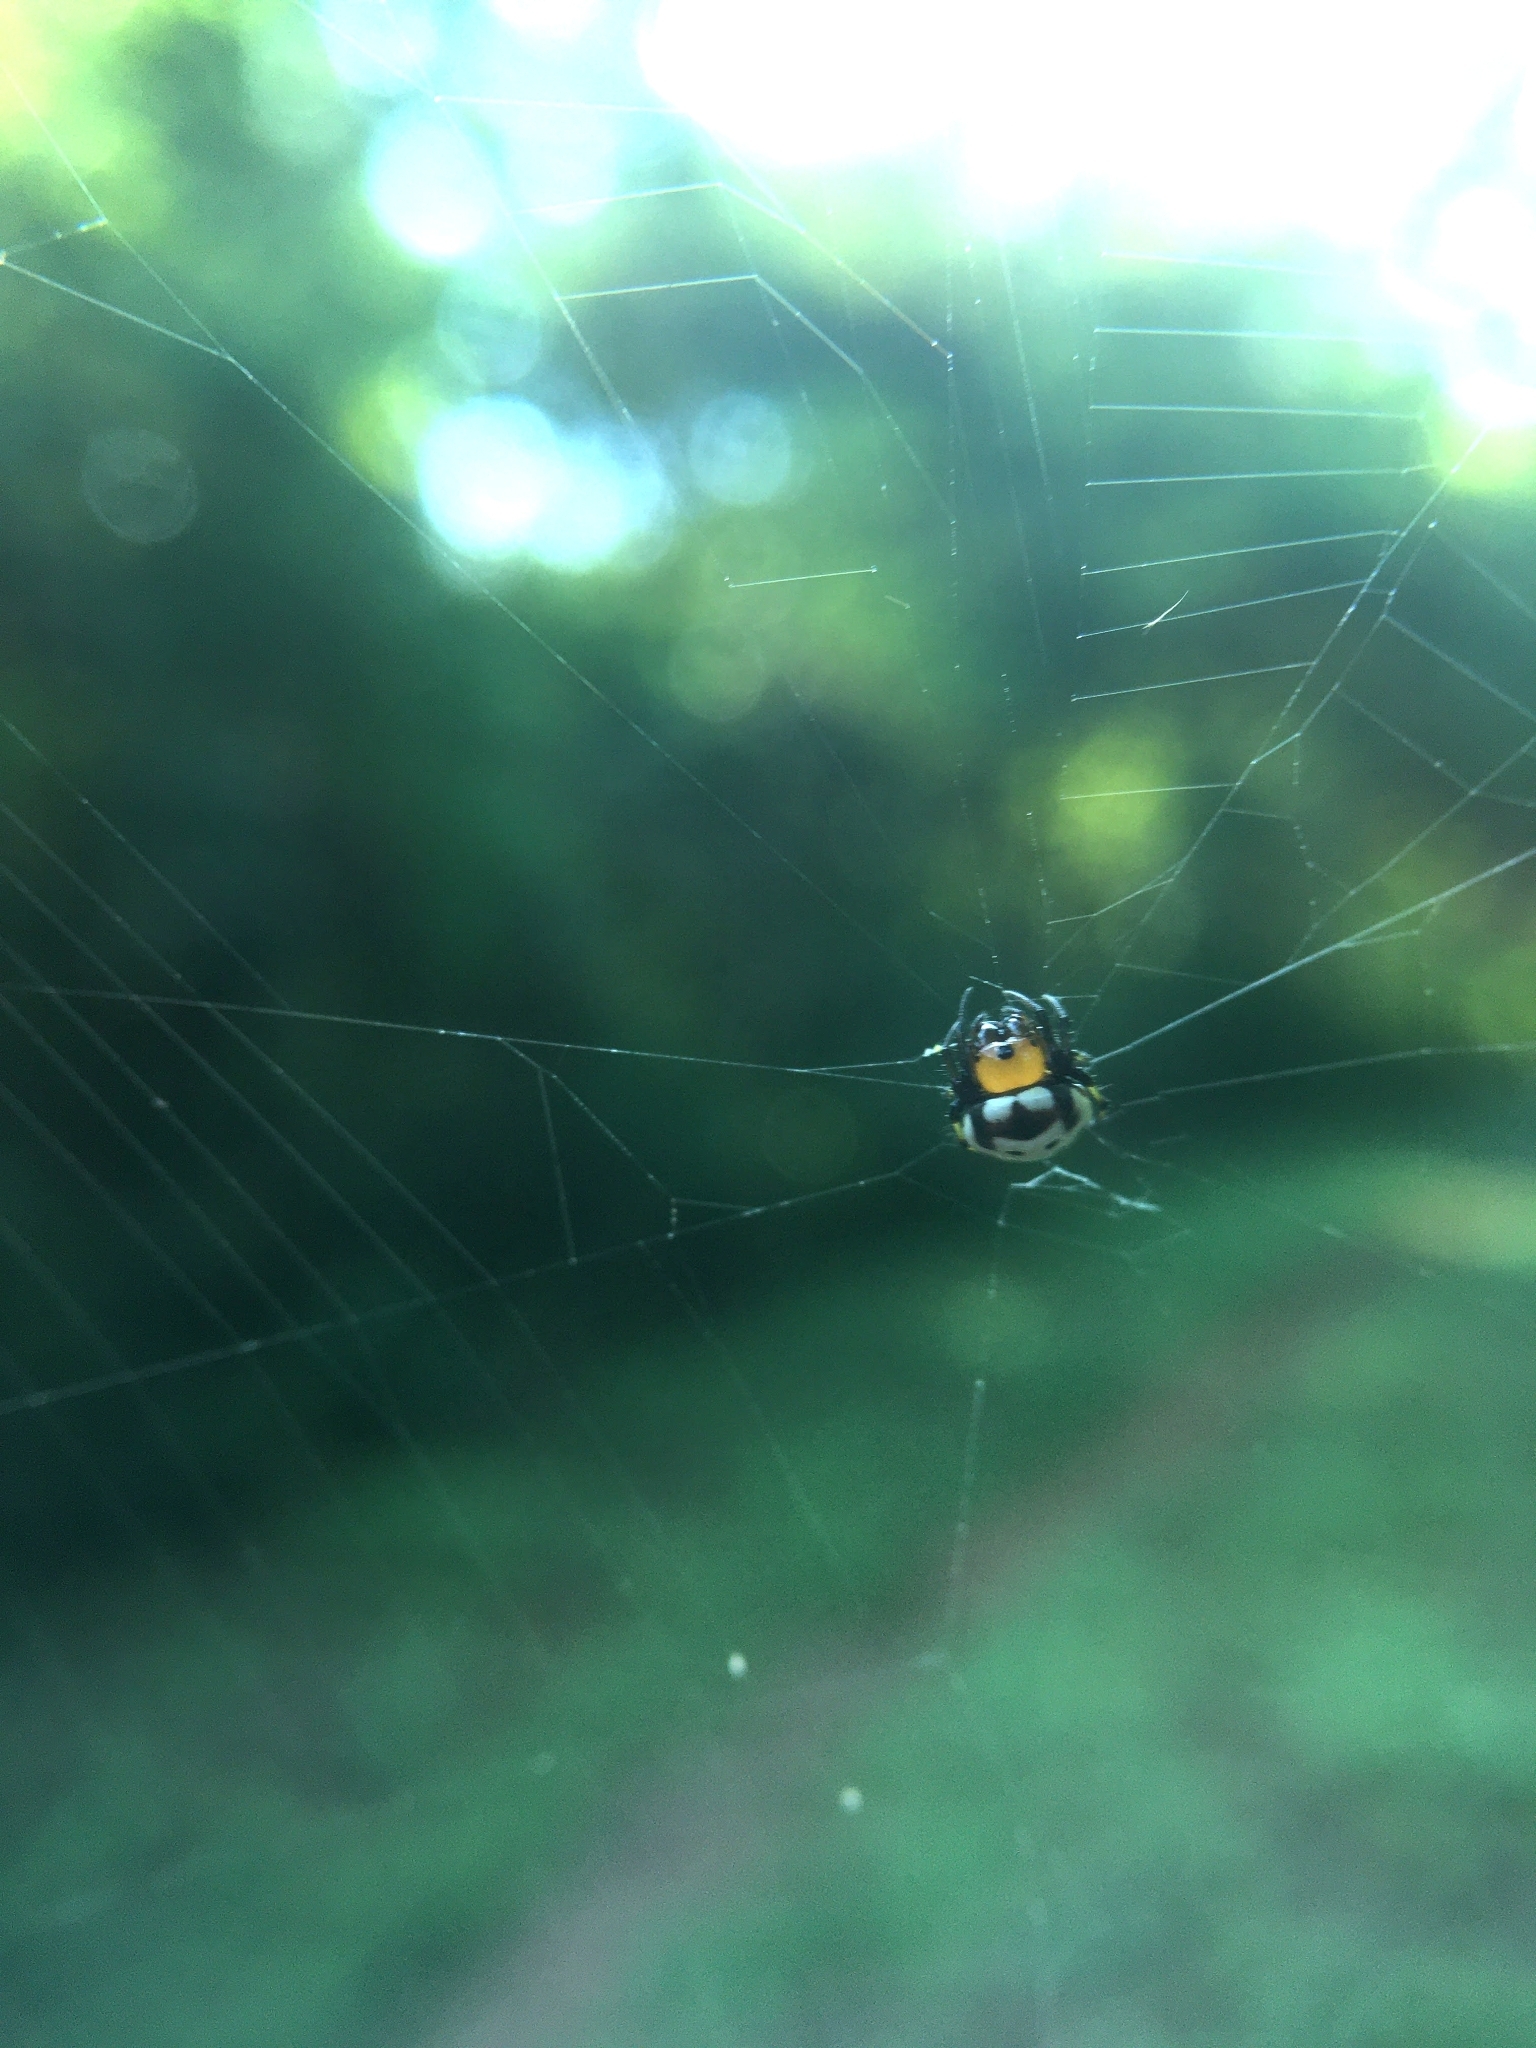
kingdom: Animalia
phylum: Arthropoda
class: Arachnida
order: Araneae
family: Araneidae
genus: Anepsion
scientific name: Anepsion maritatum
